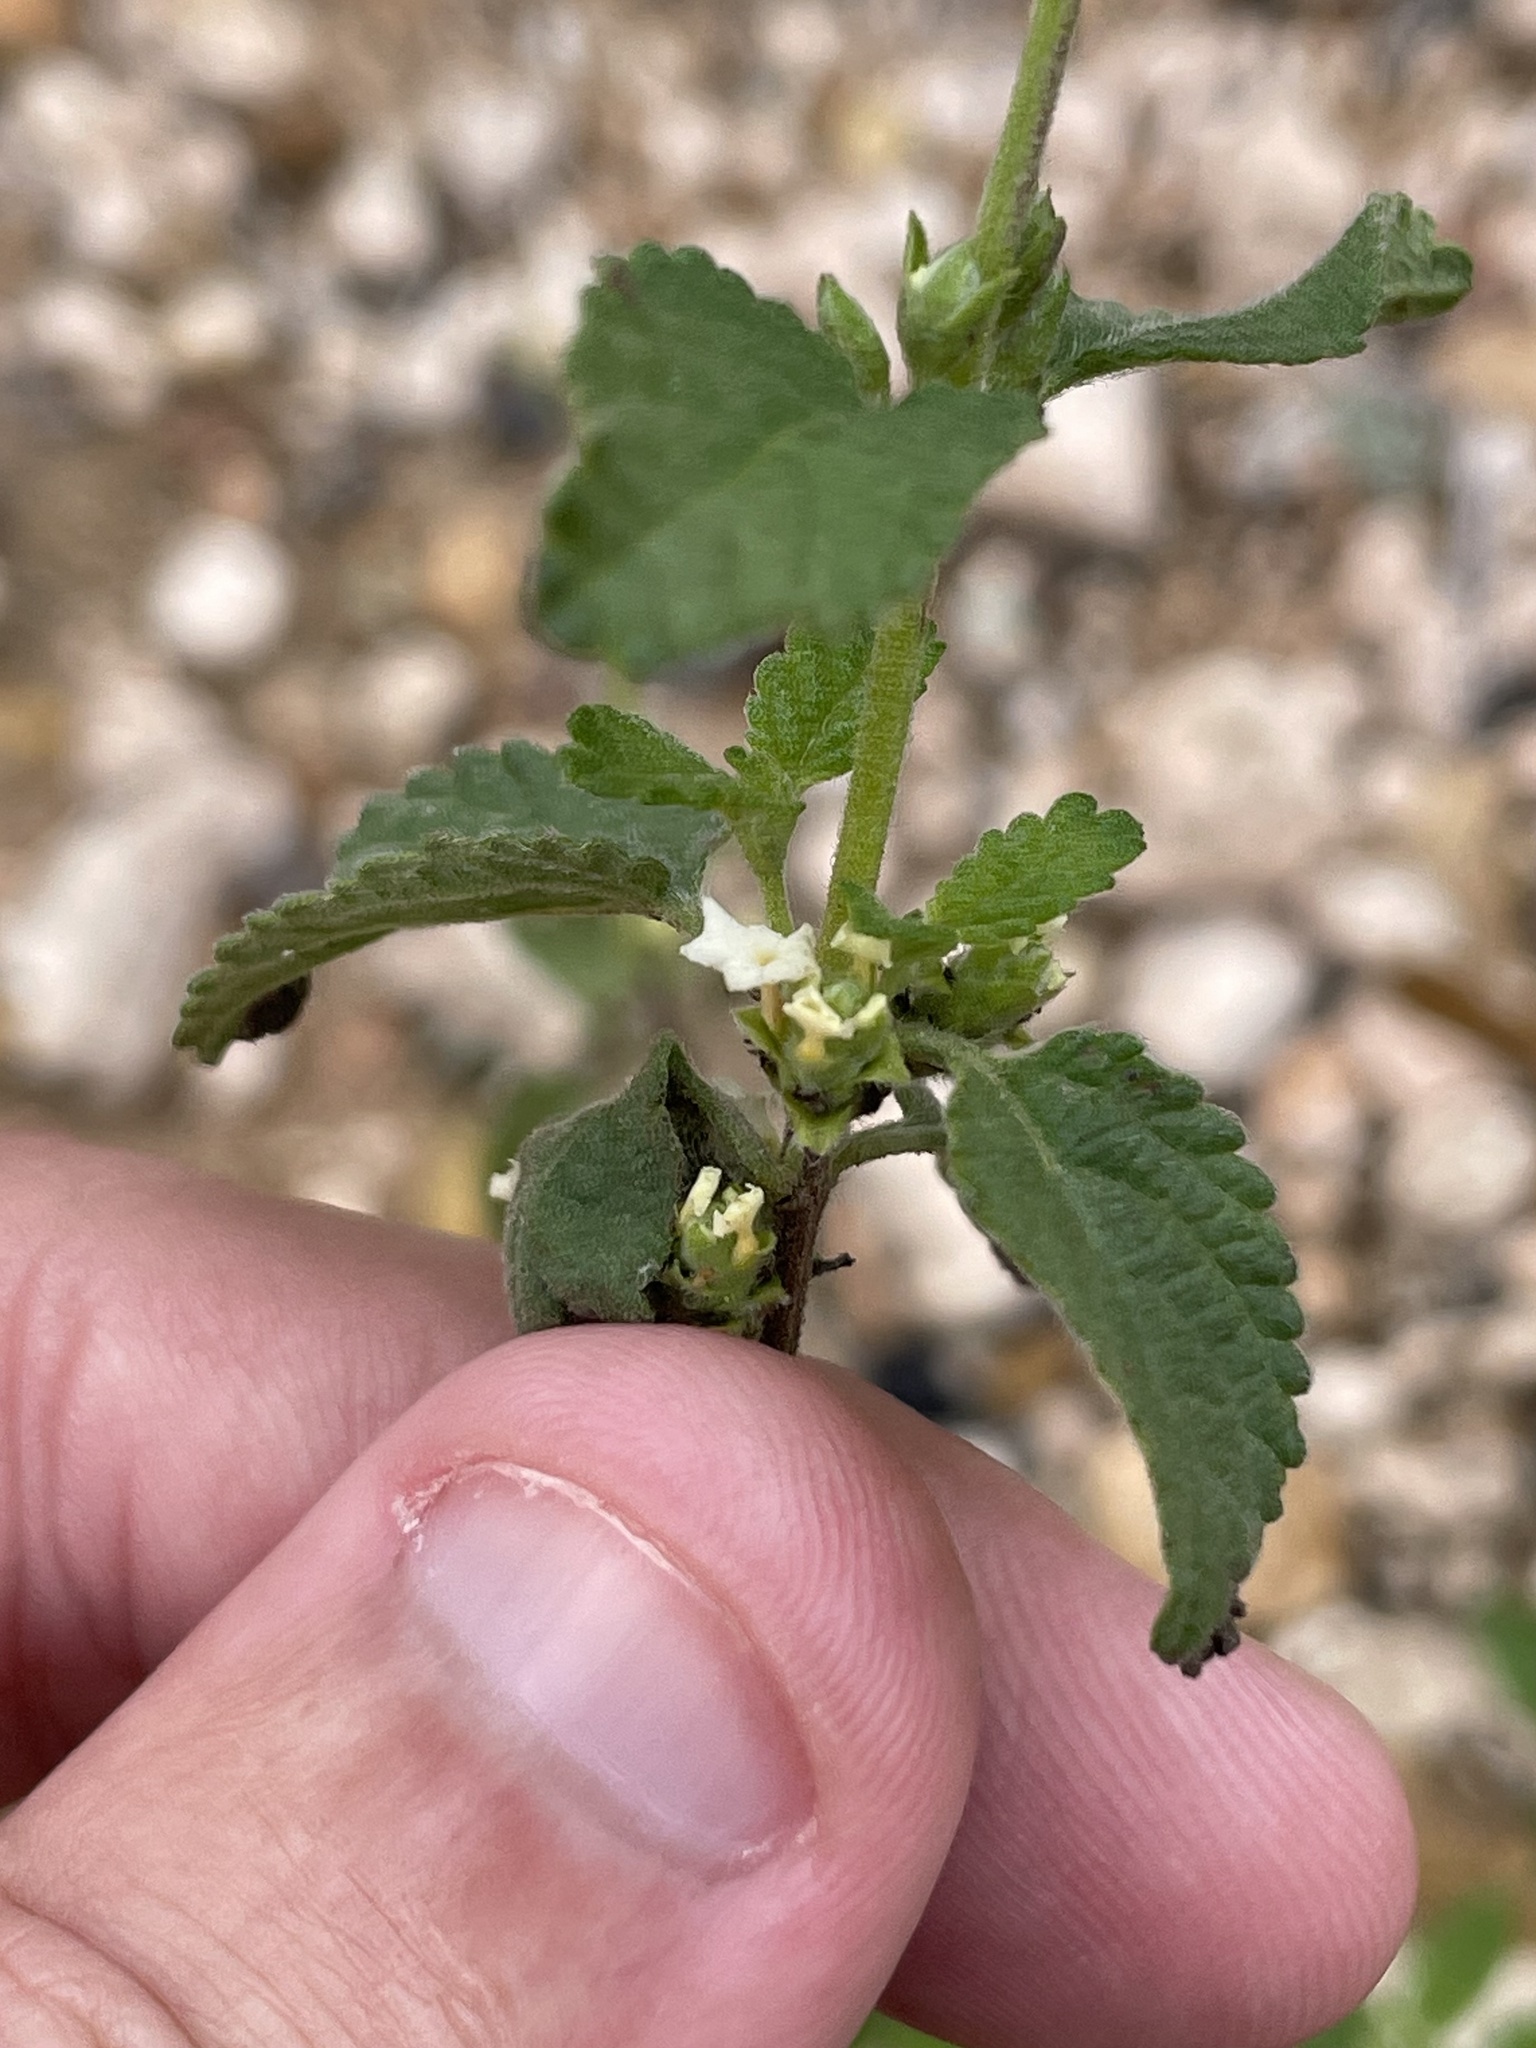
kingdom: Plantae
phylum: Tracheophyta
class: Magnoliopsida
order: Lamiales
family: Verbenaceae
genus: Lippia
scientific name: Lippia origanoides
